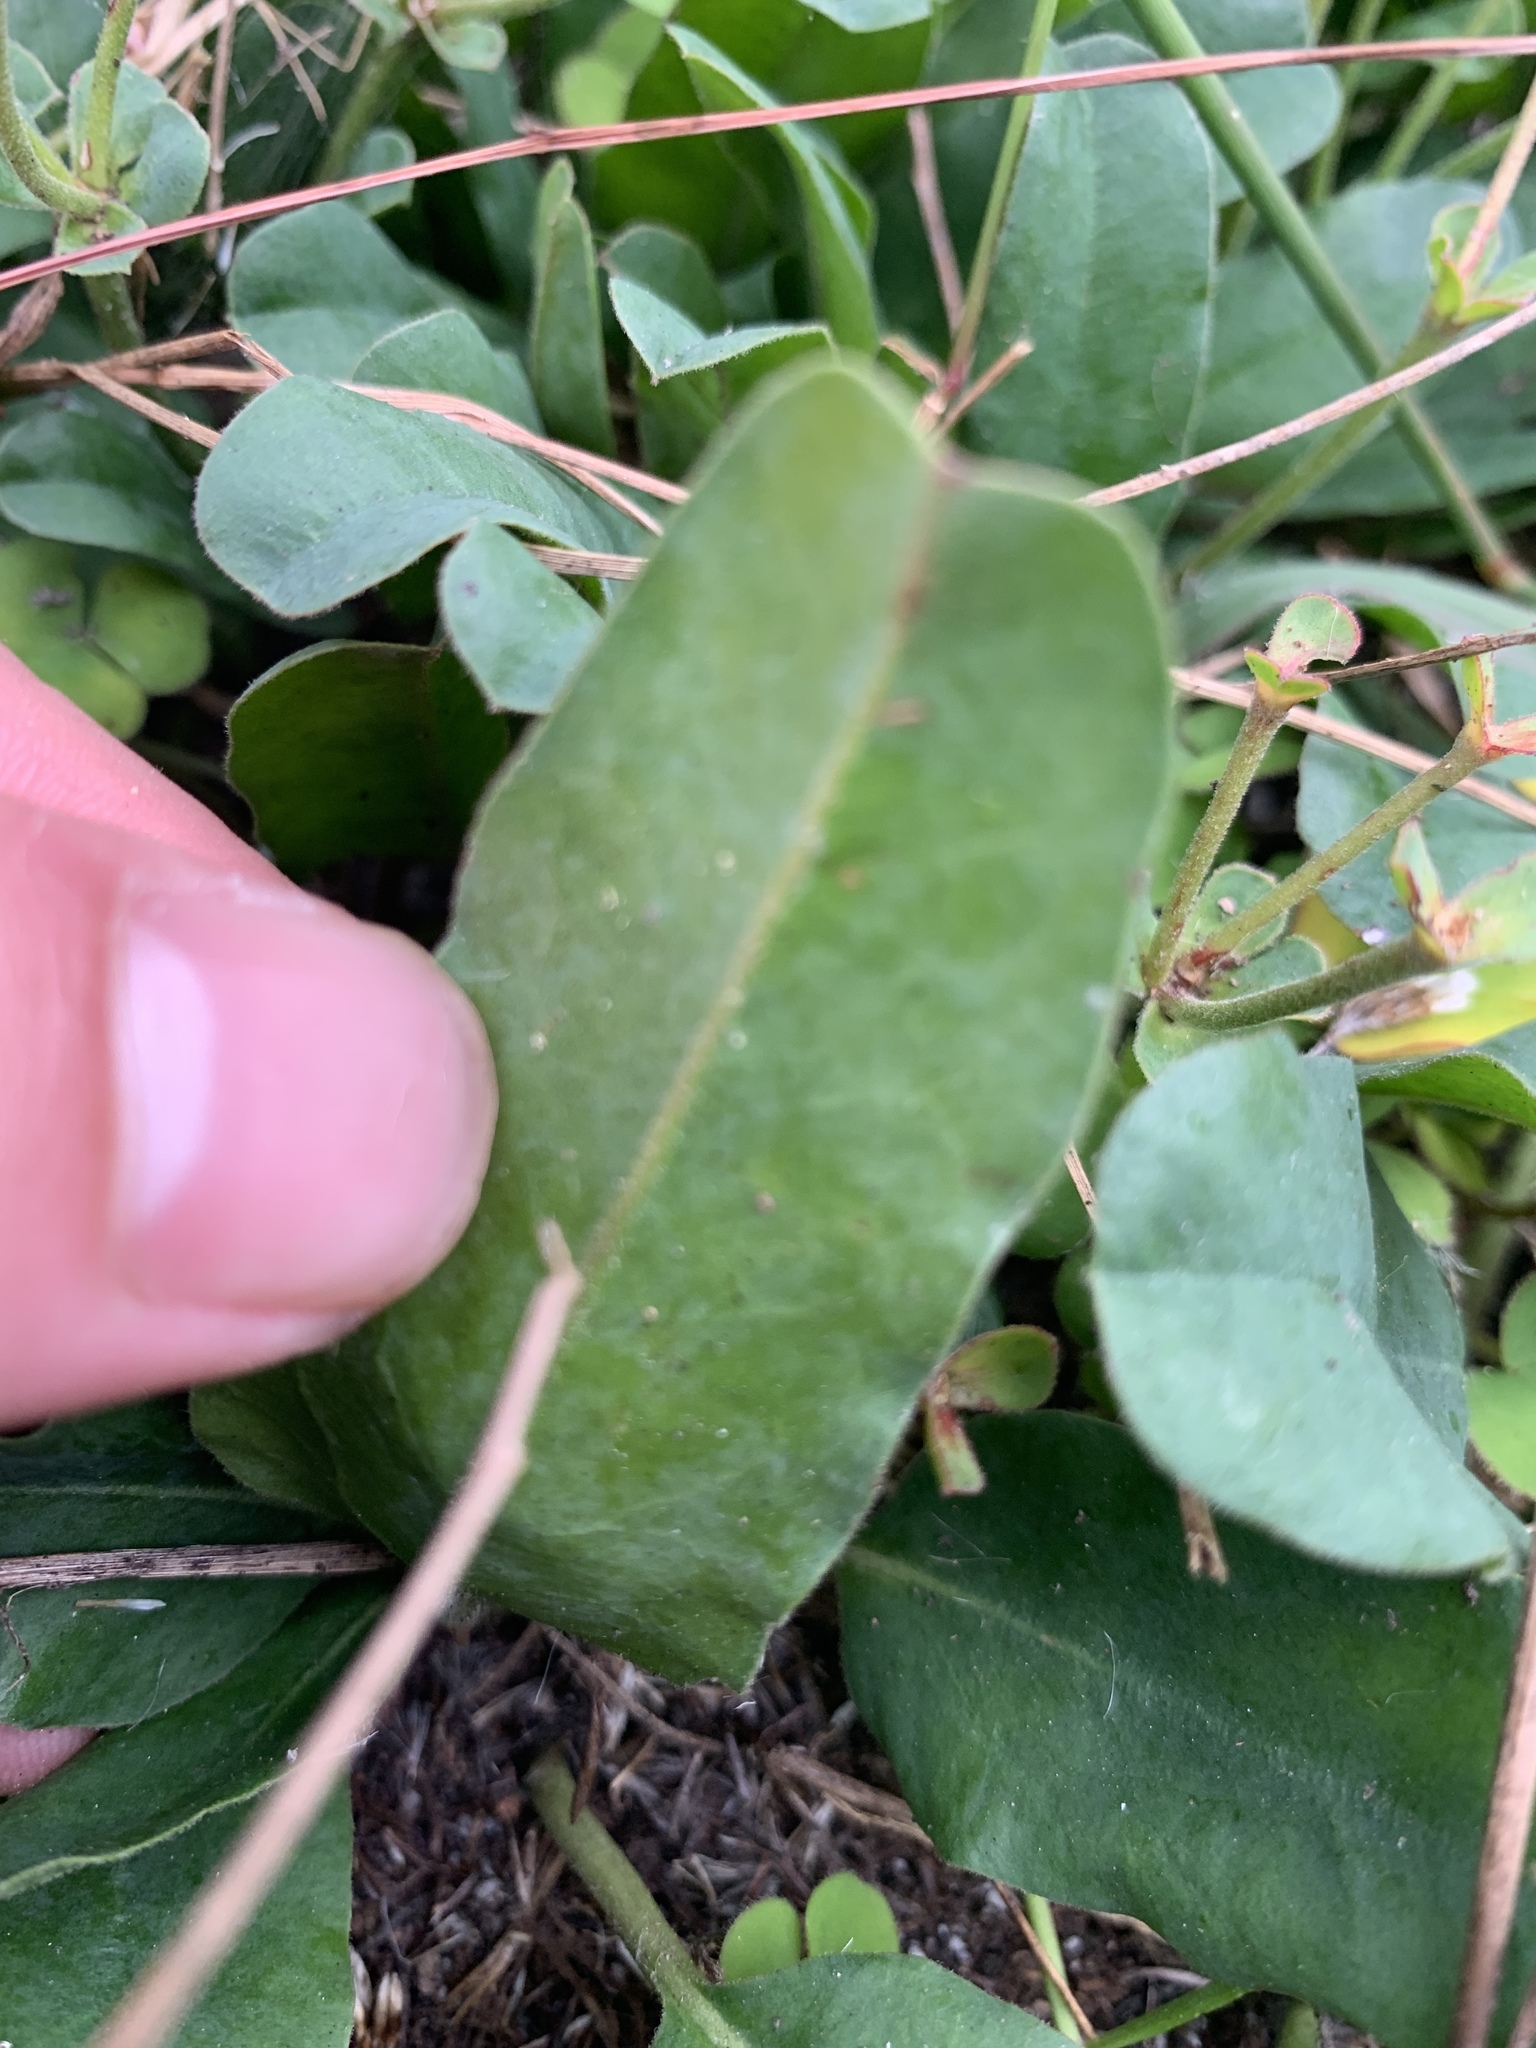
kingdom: Plantae
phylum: Tracheophyta
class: Magnoliopsida
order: Malpighiales
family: Euphorbiaceae
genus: Euphorbia
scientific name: Euphorbia tuberosa
